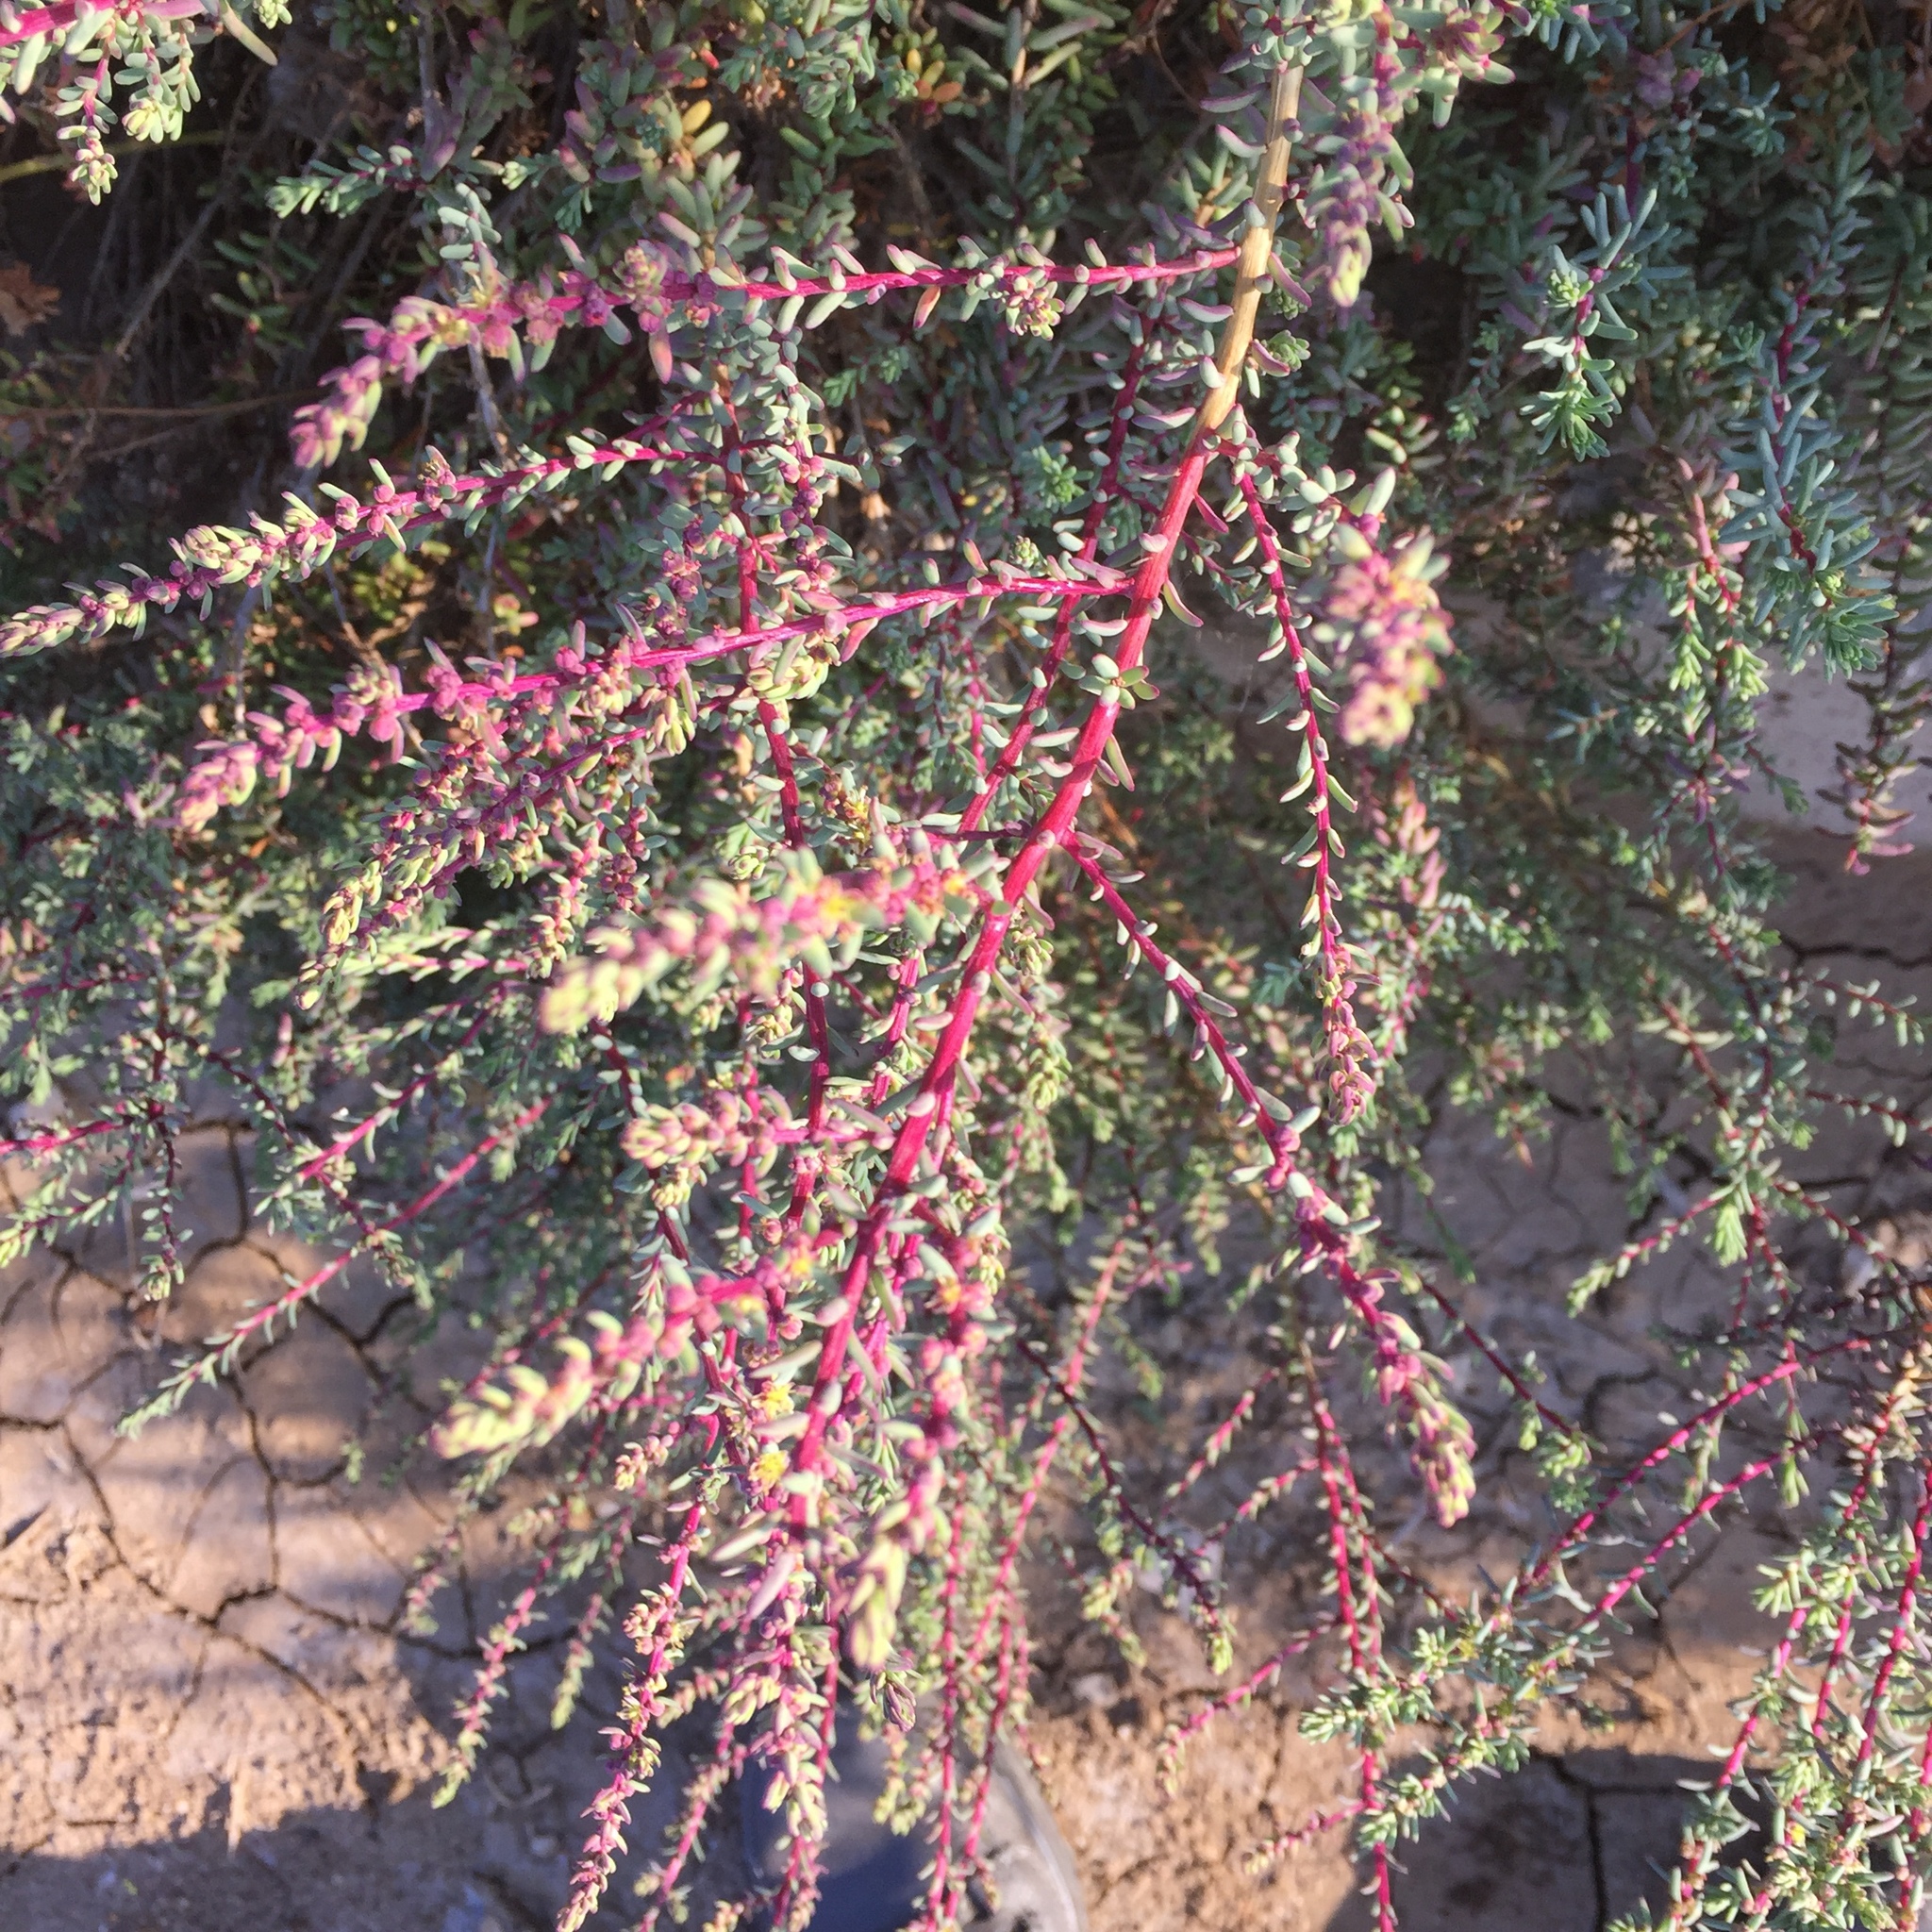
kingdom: Plantae
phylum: Tracheophyta
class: Magnoliopsida
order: Caryophyllales
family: Amaranthaceae
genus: Suaeda
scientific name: Suaeda vera
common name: Shrubby sea-blite
